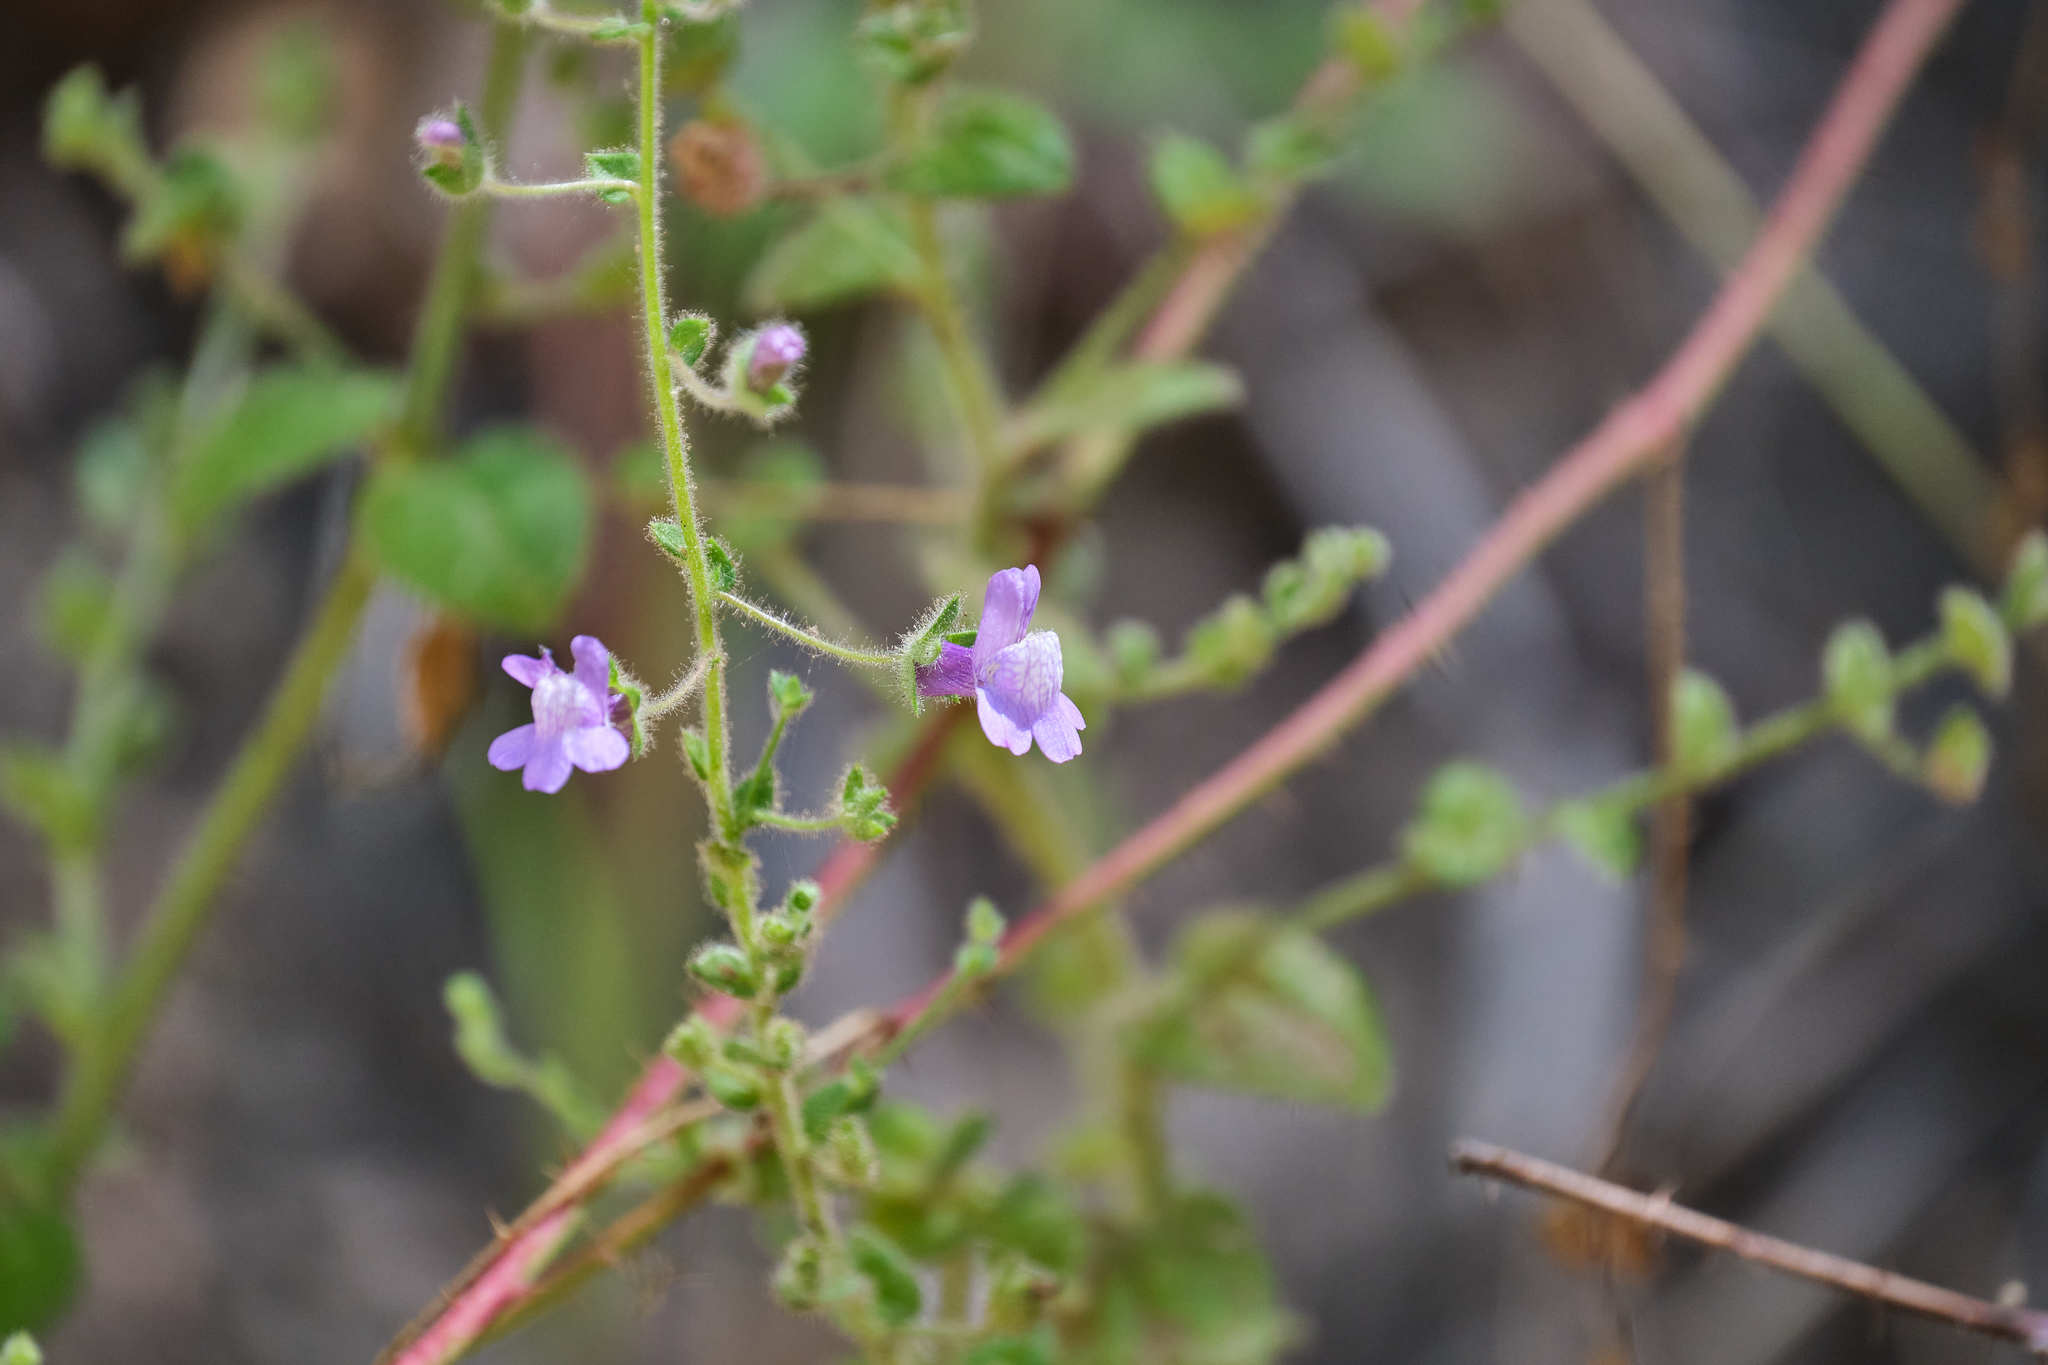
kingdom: Plantae
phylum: Tracheophyta
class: Magnoliopsida
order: Lamiales
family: Plantaginaceae
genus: Sairocarpus
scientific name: Sairocarpus nuttallianus
